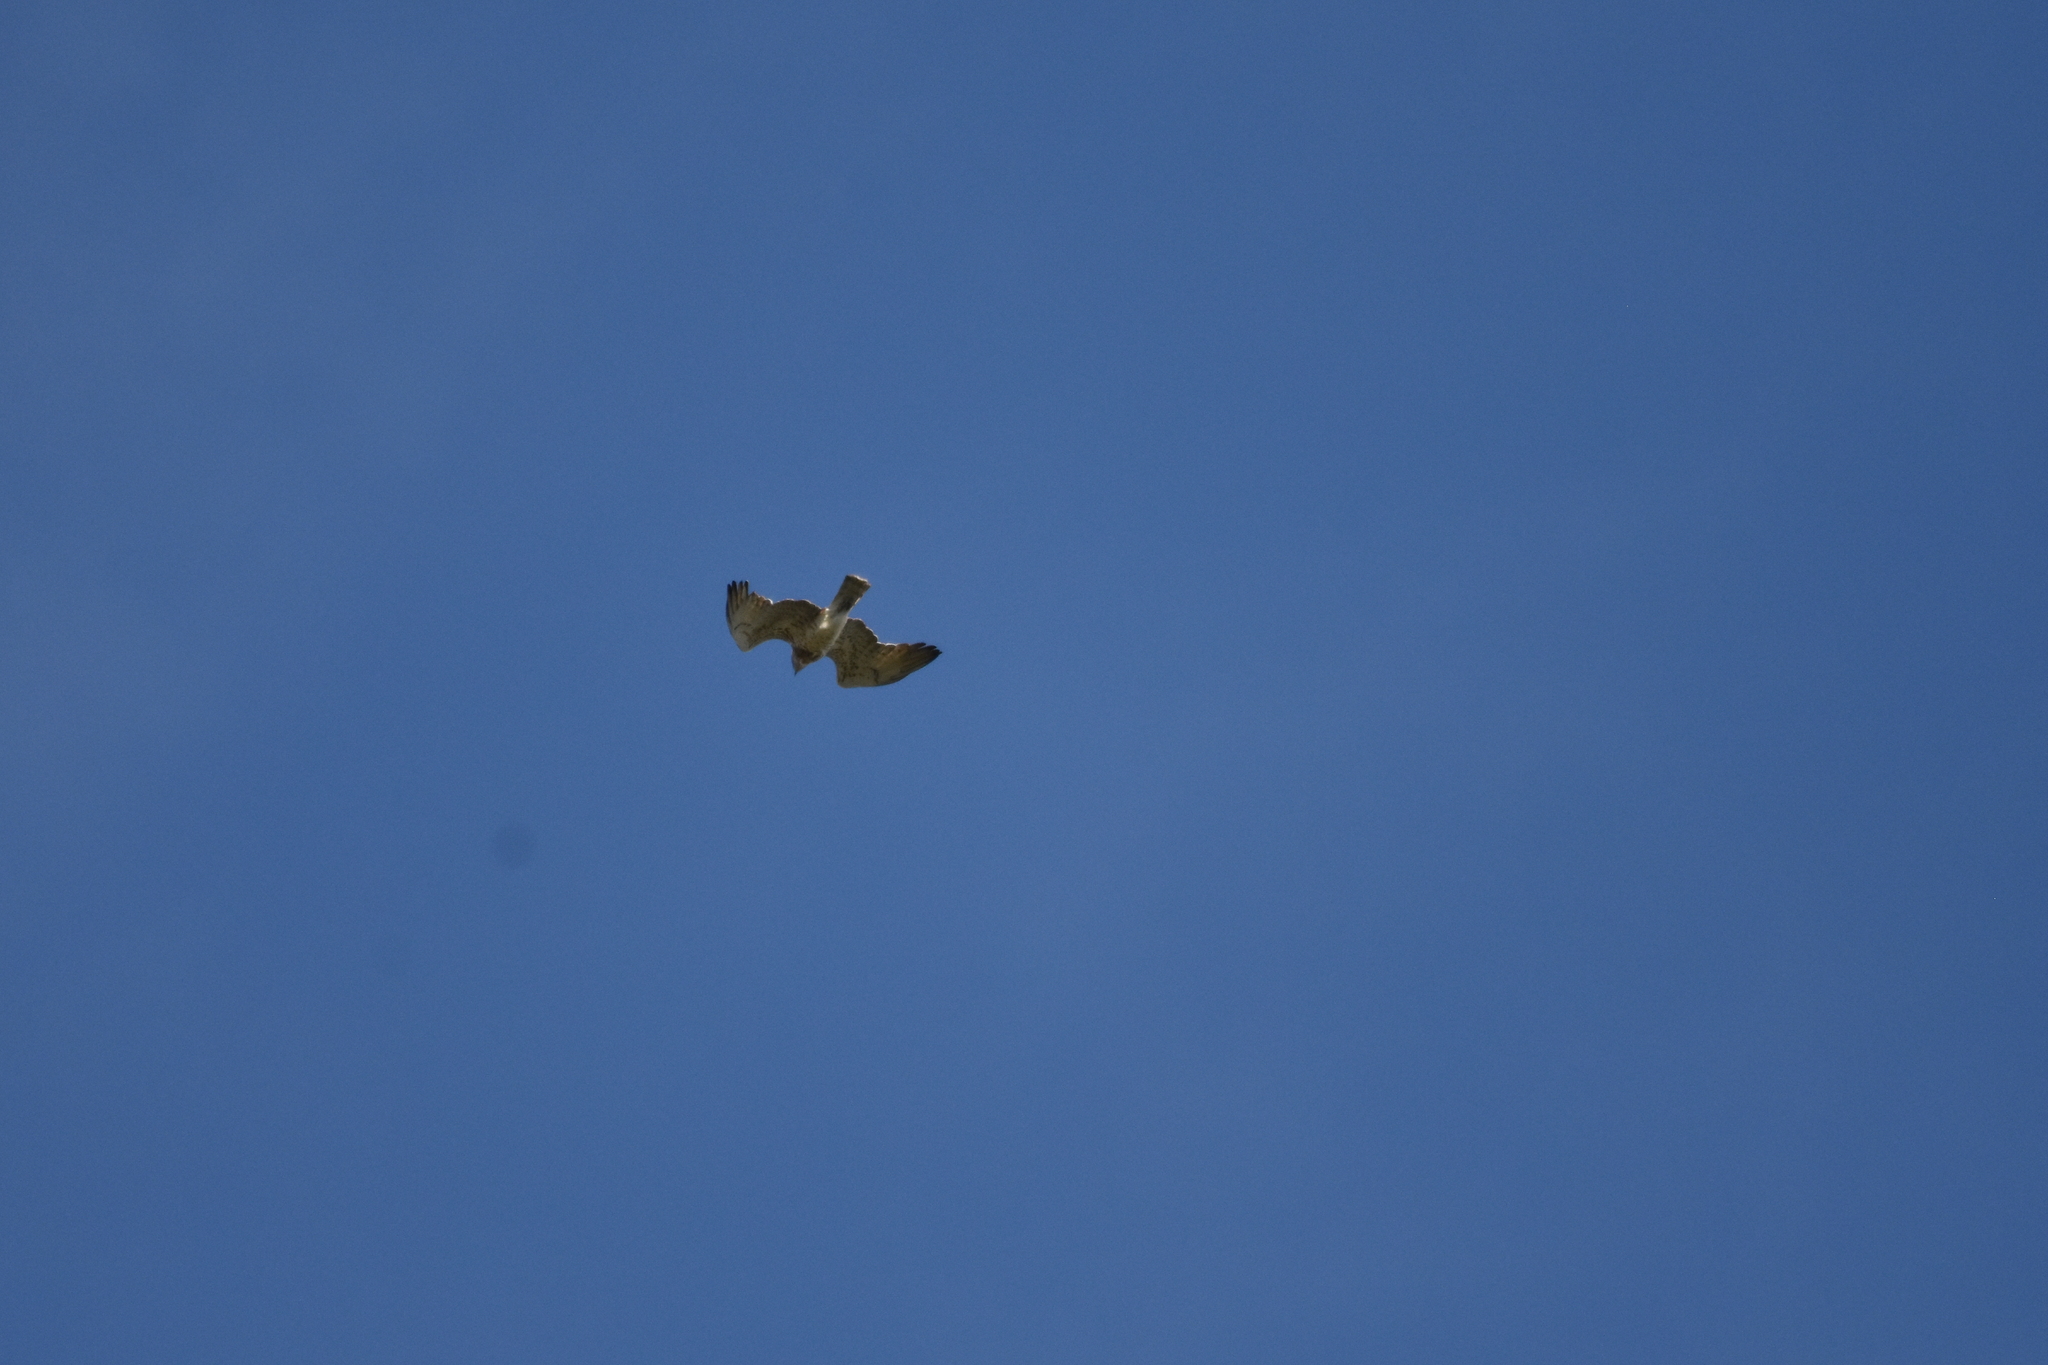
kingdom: Animalia
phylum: Chordata
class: Aves
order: Accipitriformes
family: Accipitridae
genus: Circaetus
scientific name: Circaetus gallicus
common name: Short-toed snake eagle
